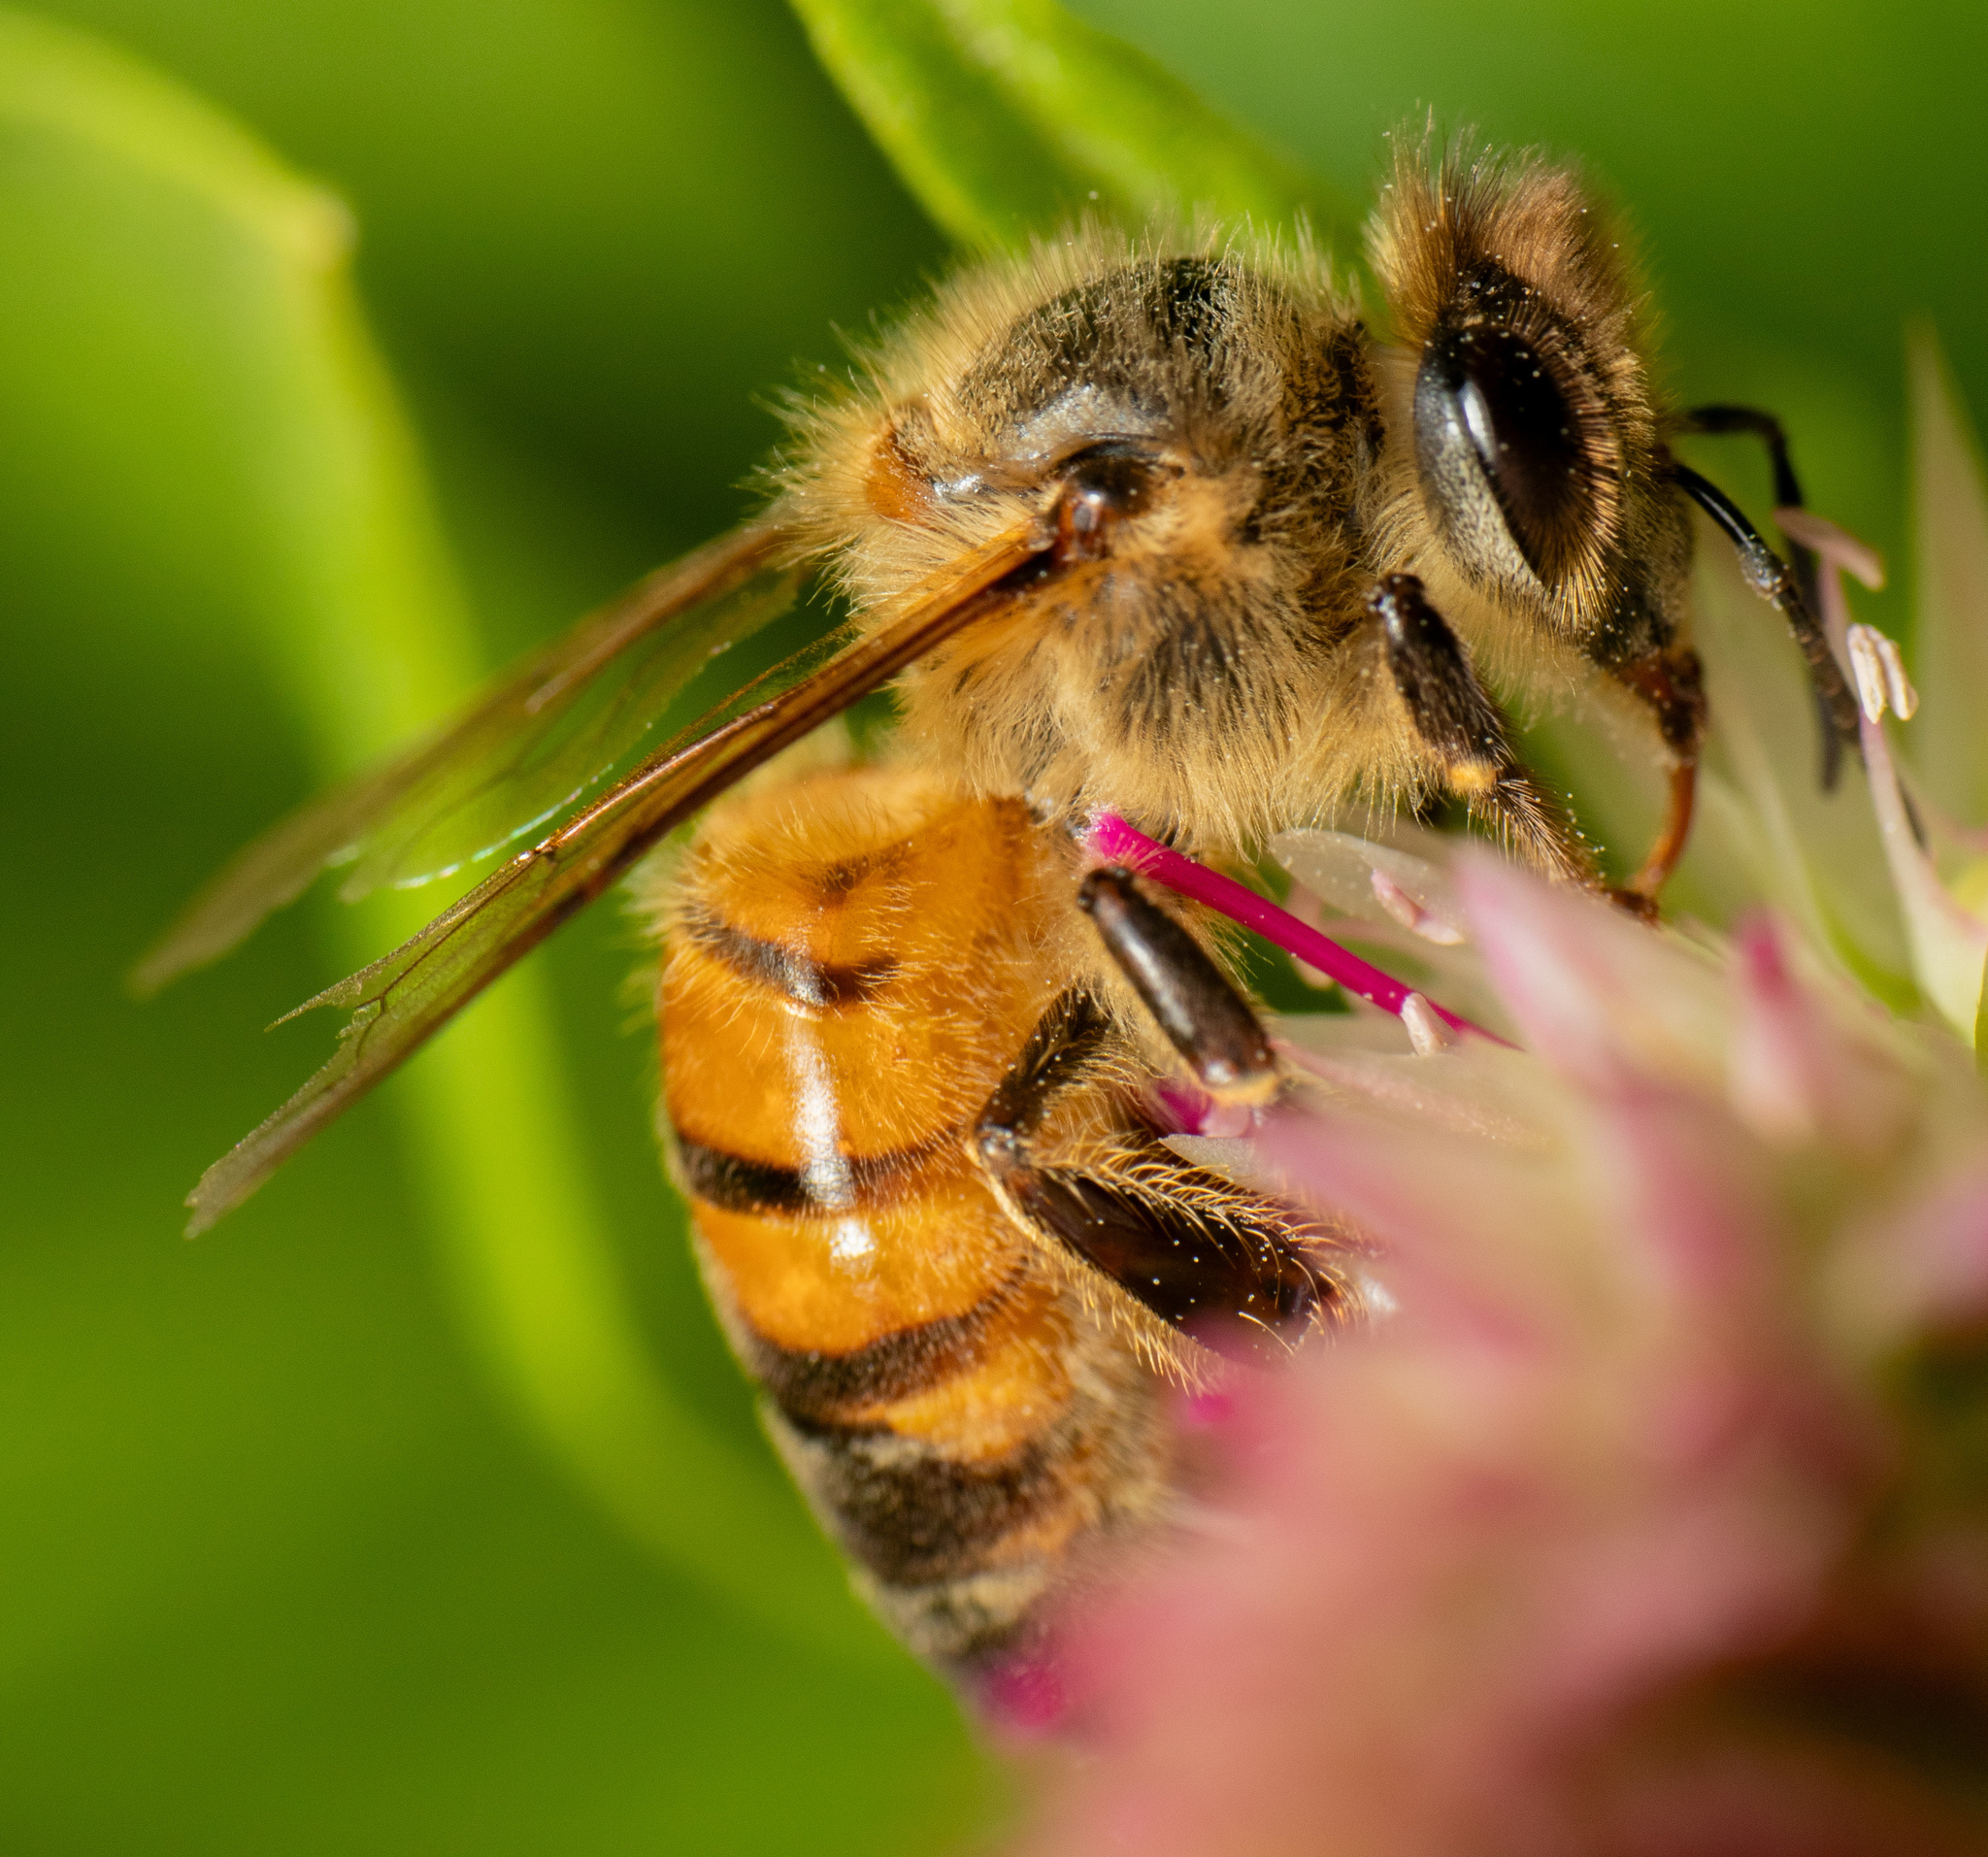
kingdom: Animalia
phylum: Arthropoda
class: Insecta
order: Hymenoptera
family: Apidae
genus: Apis
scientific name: Apis mellifera
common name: Honey bee
